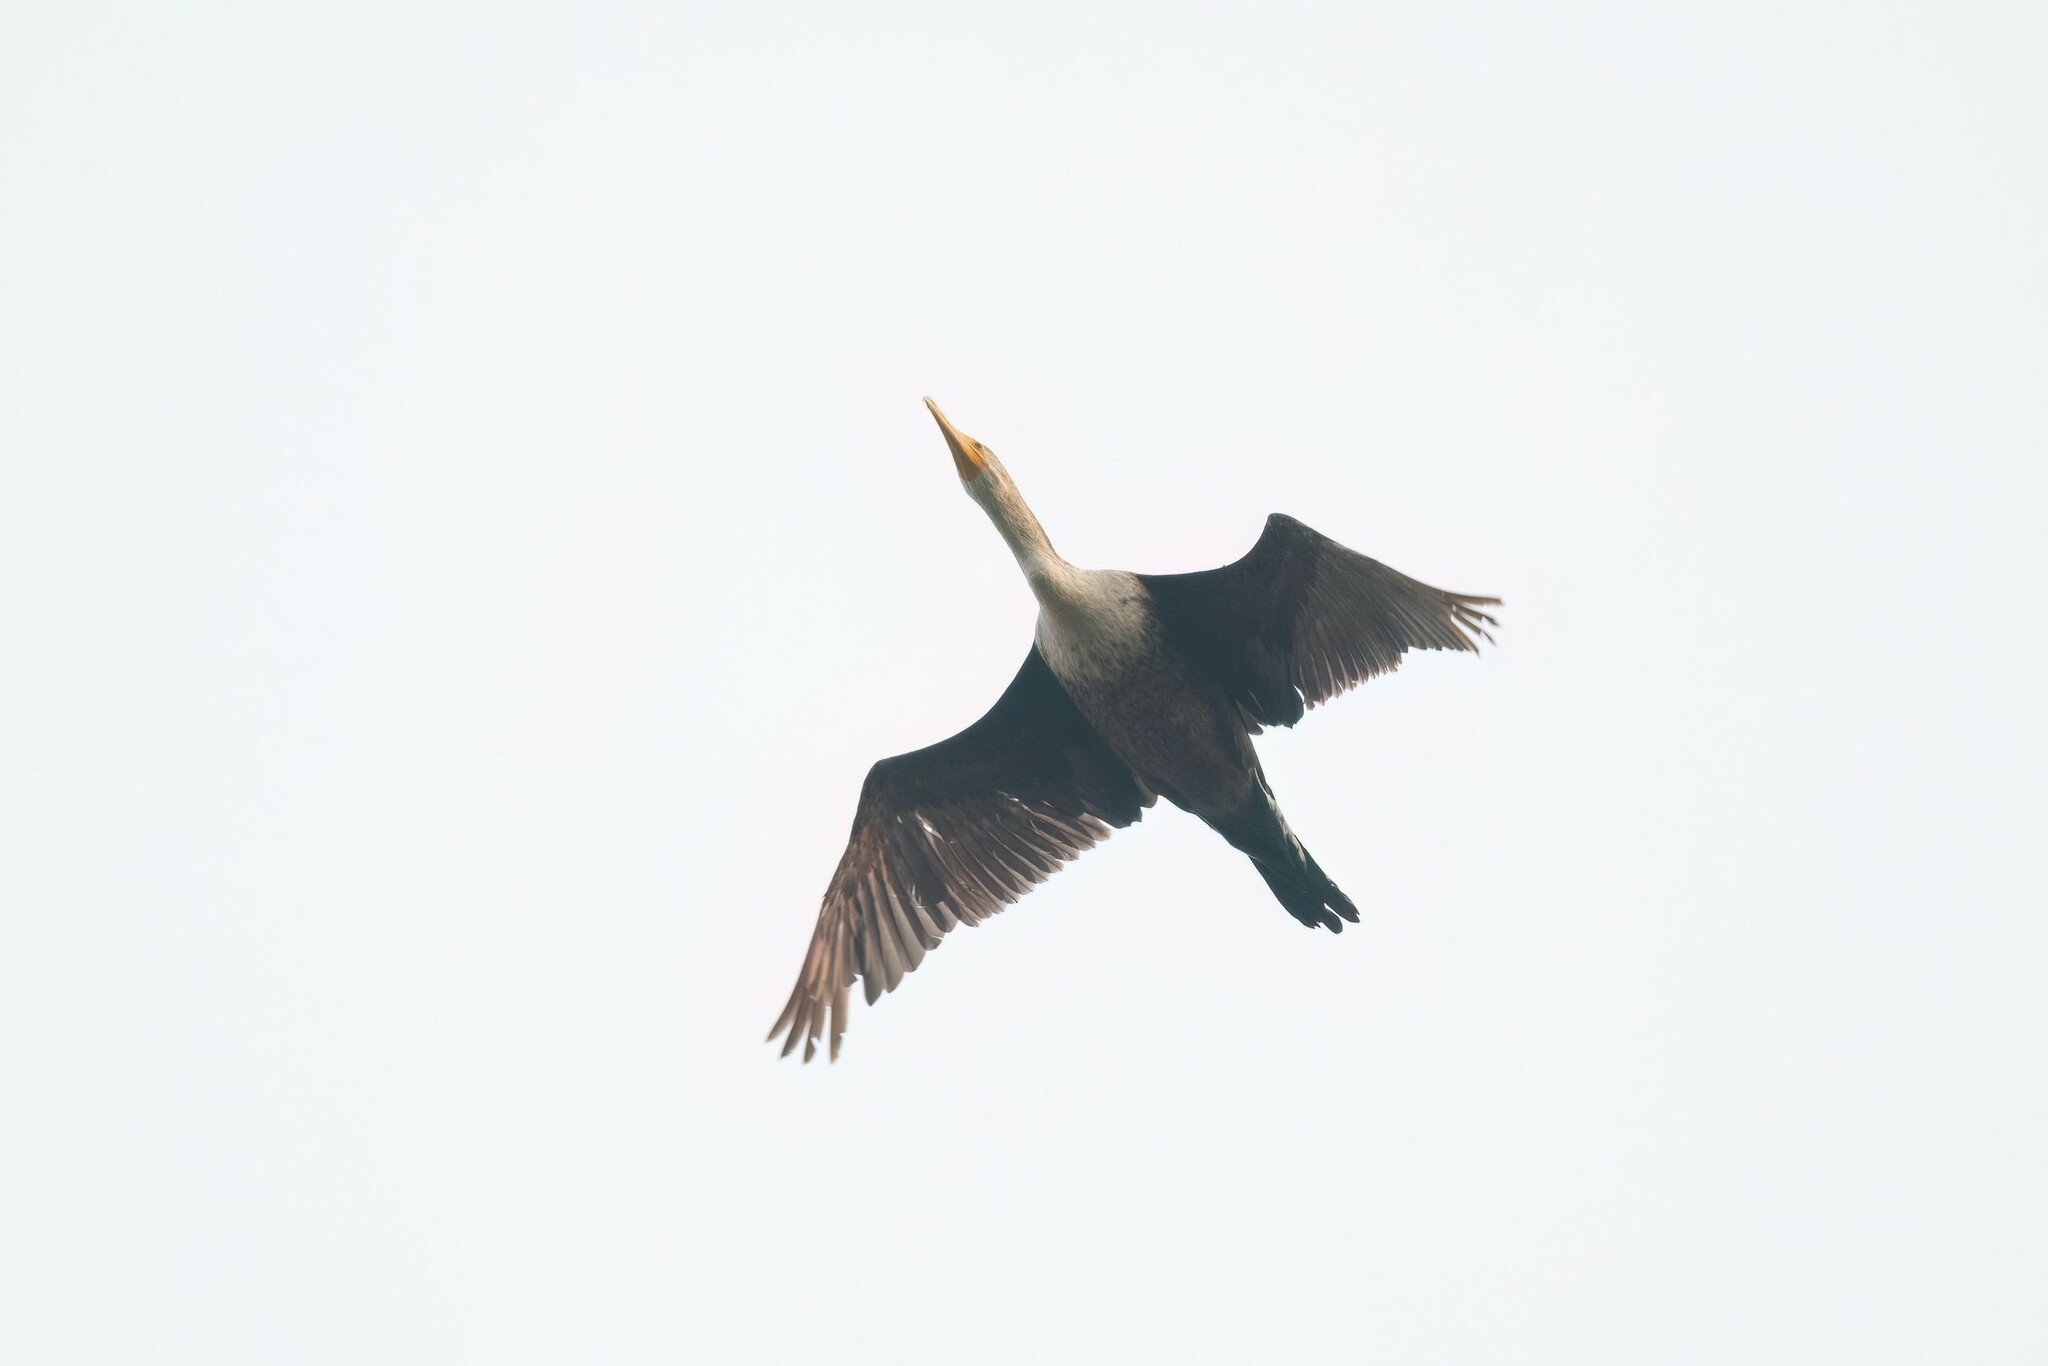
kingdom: Animalia
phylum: Chordata
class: Aves
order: Suliformes
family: Phalacrocoracidae
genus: Phalacrocorax
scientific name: Phalacrocorax auritus
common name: Double-crested cormorant
